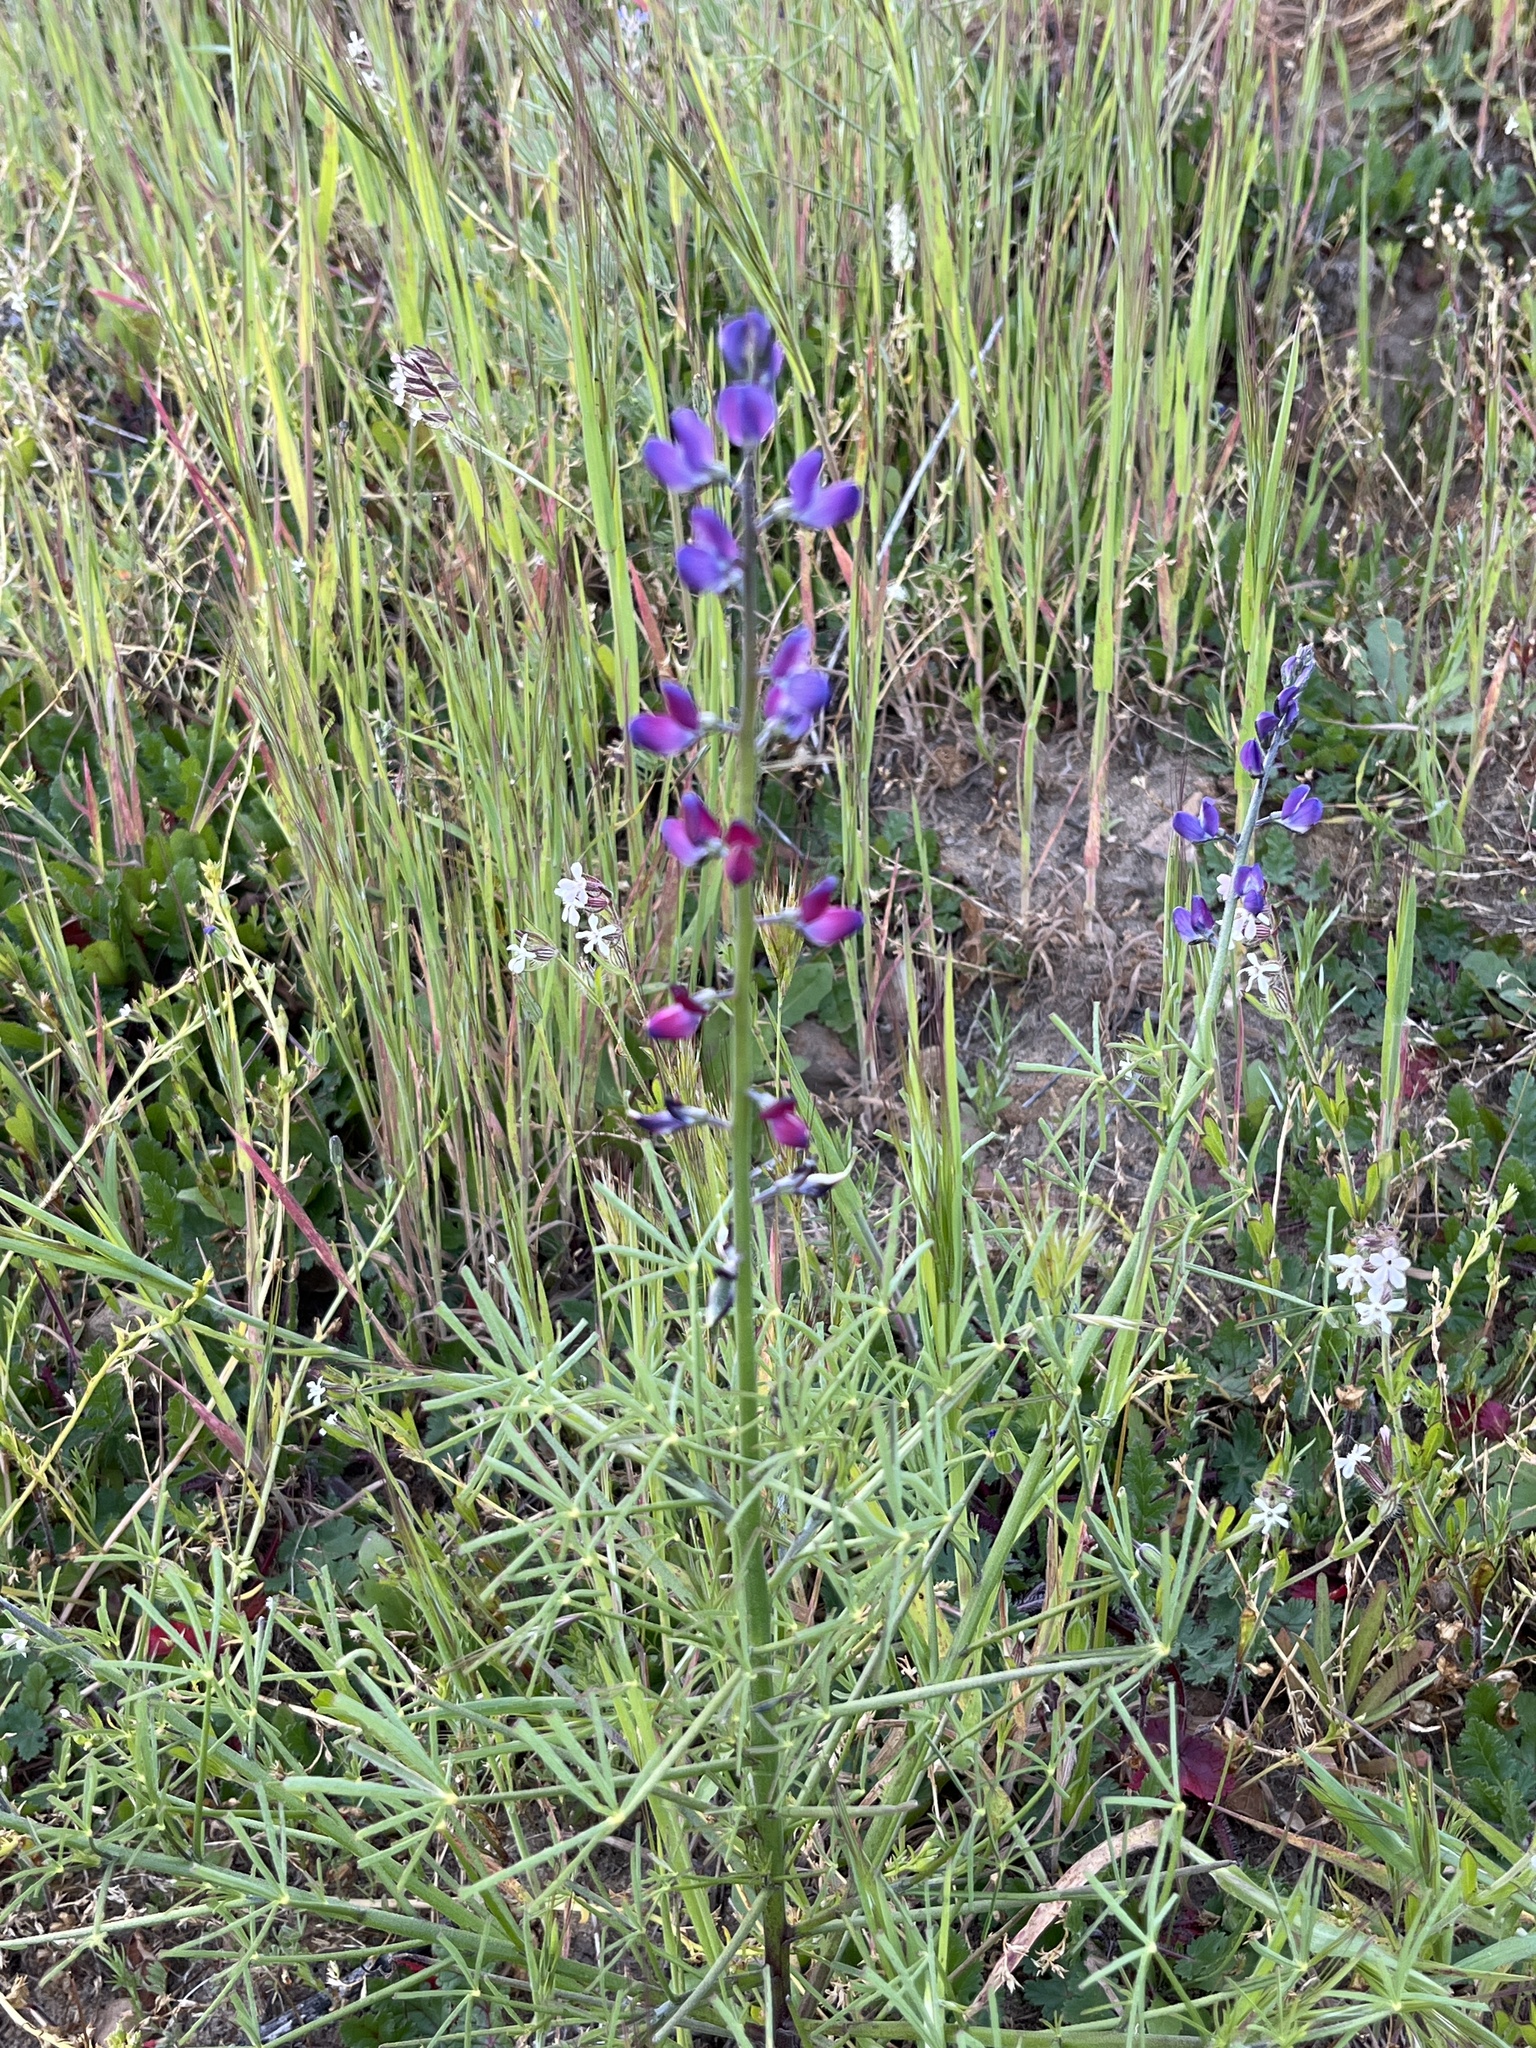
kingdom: Plantae
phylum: Tracheophyta
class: Magnoliopsida
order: Fabales
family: Fabaceae
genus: Lupinus
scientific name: Lupinus truncatus
